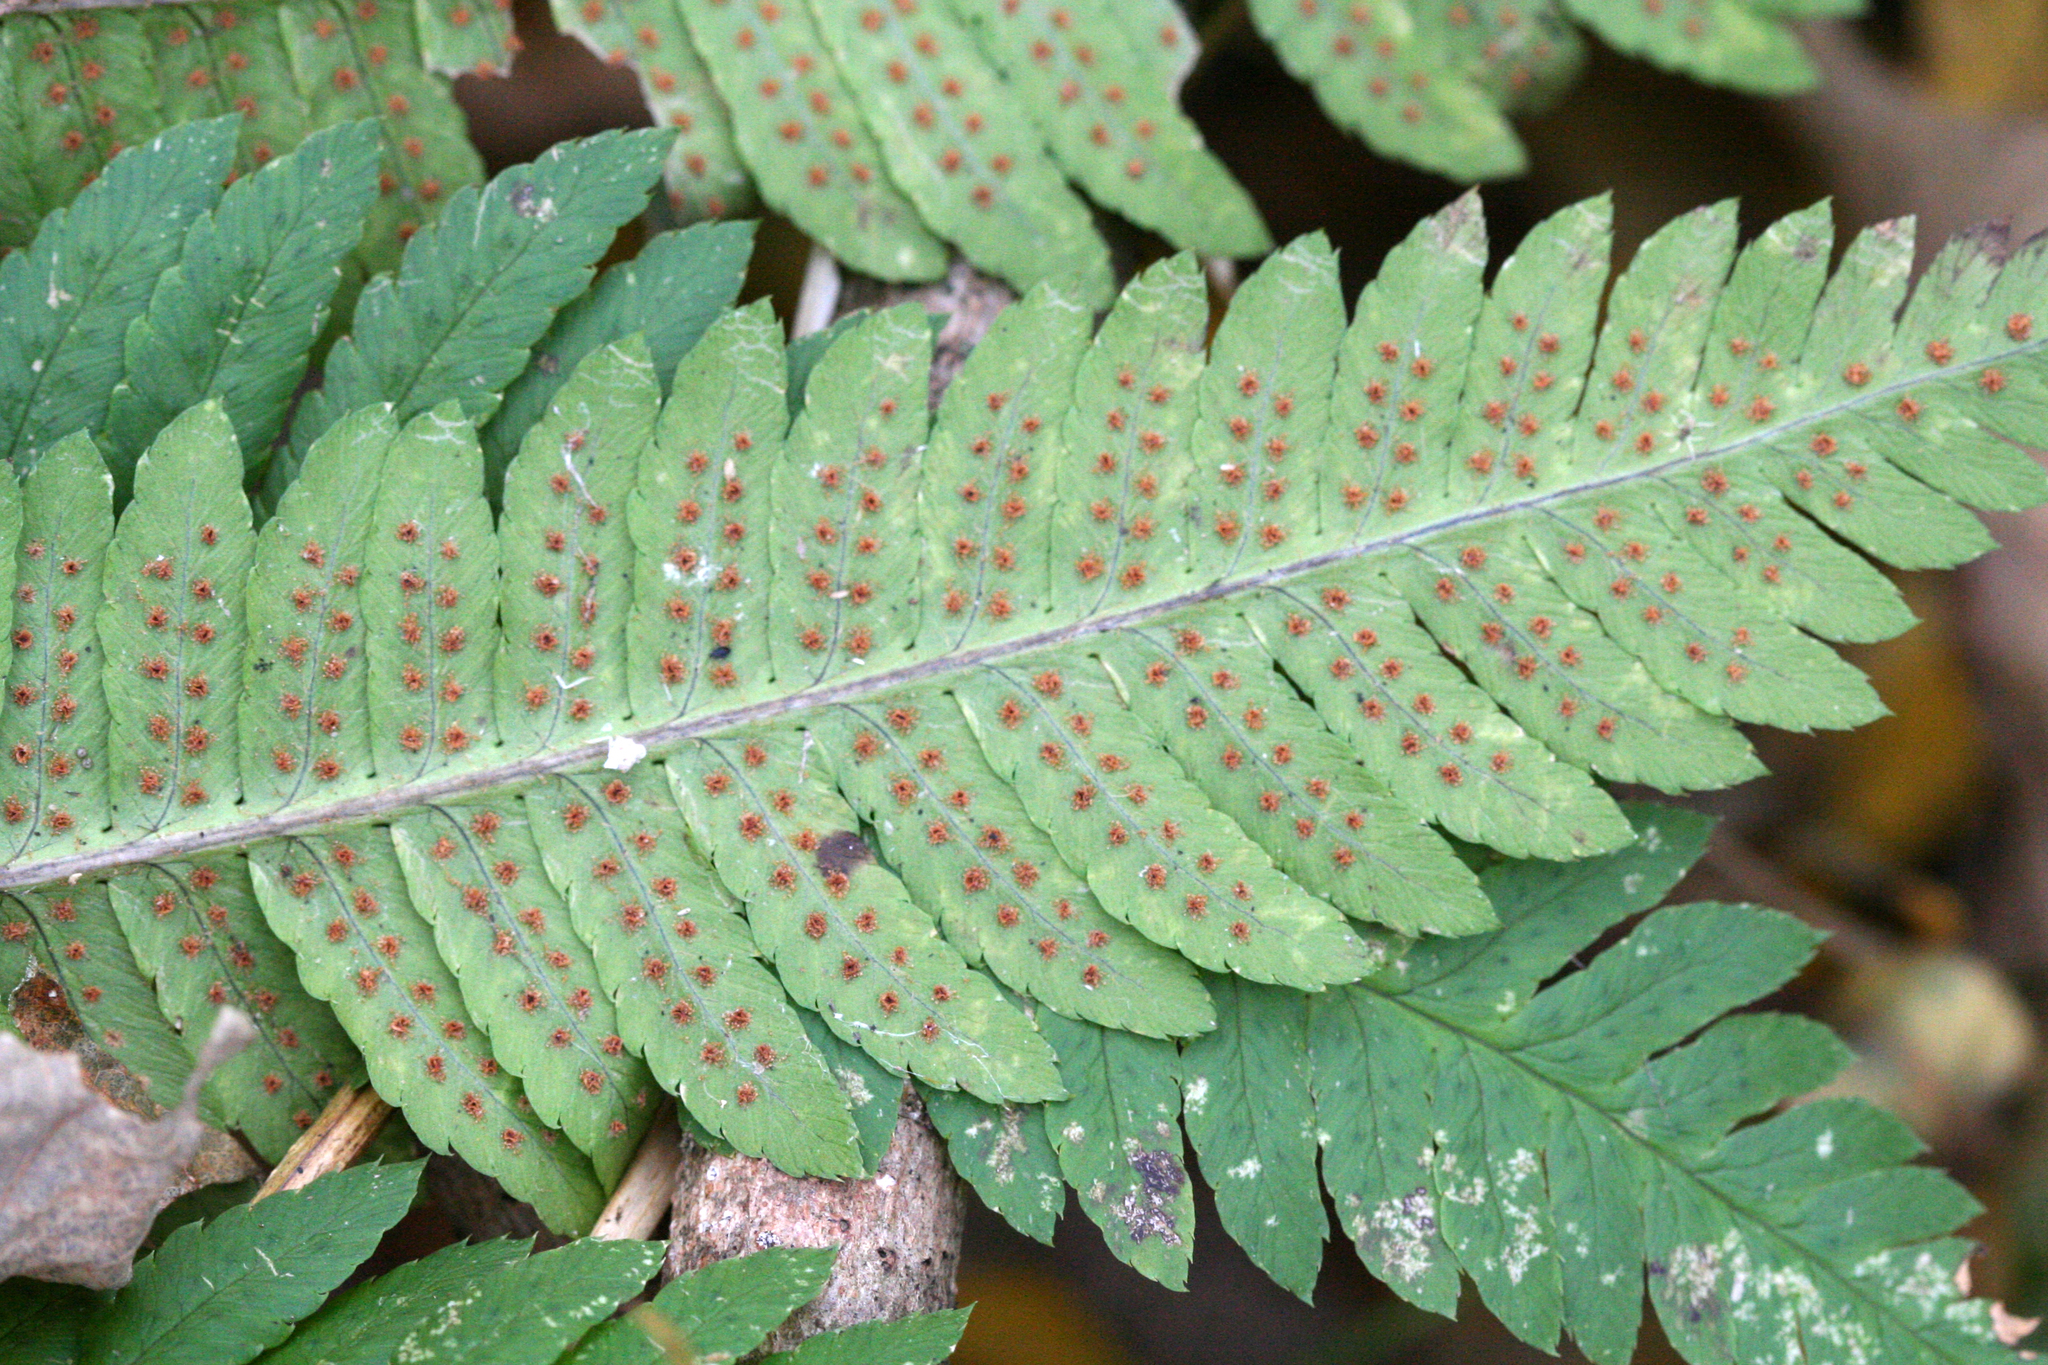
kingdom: Plantae
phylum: Tracheophyta
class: Polypodiopsida
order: Polypodiales
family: Dryopteridaceae
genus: Dryopteris
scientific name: Dryopteris goldieana
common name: Goldie's fern
